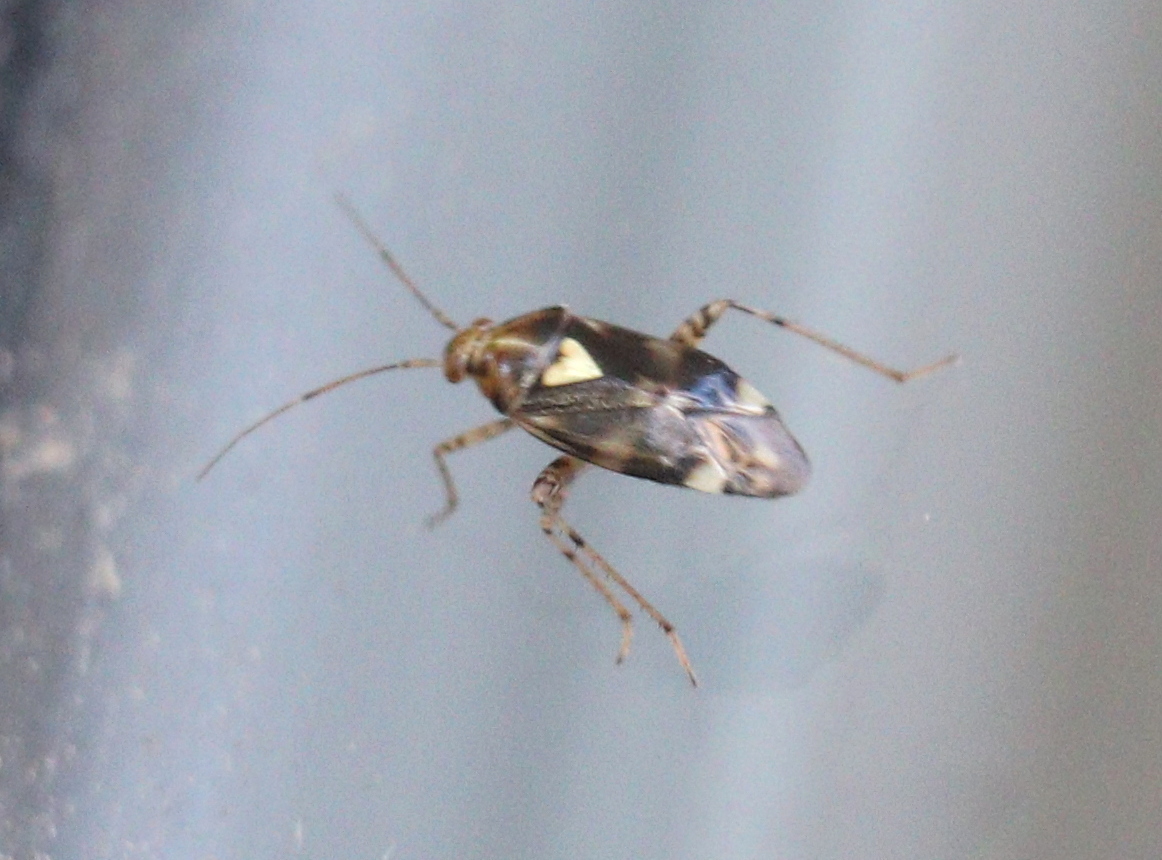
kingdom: Animalia
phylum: Arthropoda
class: Insecta
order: Hemiptera
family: Miridae
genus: Liocoris
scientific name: Liocoris tripustulatus
